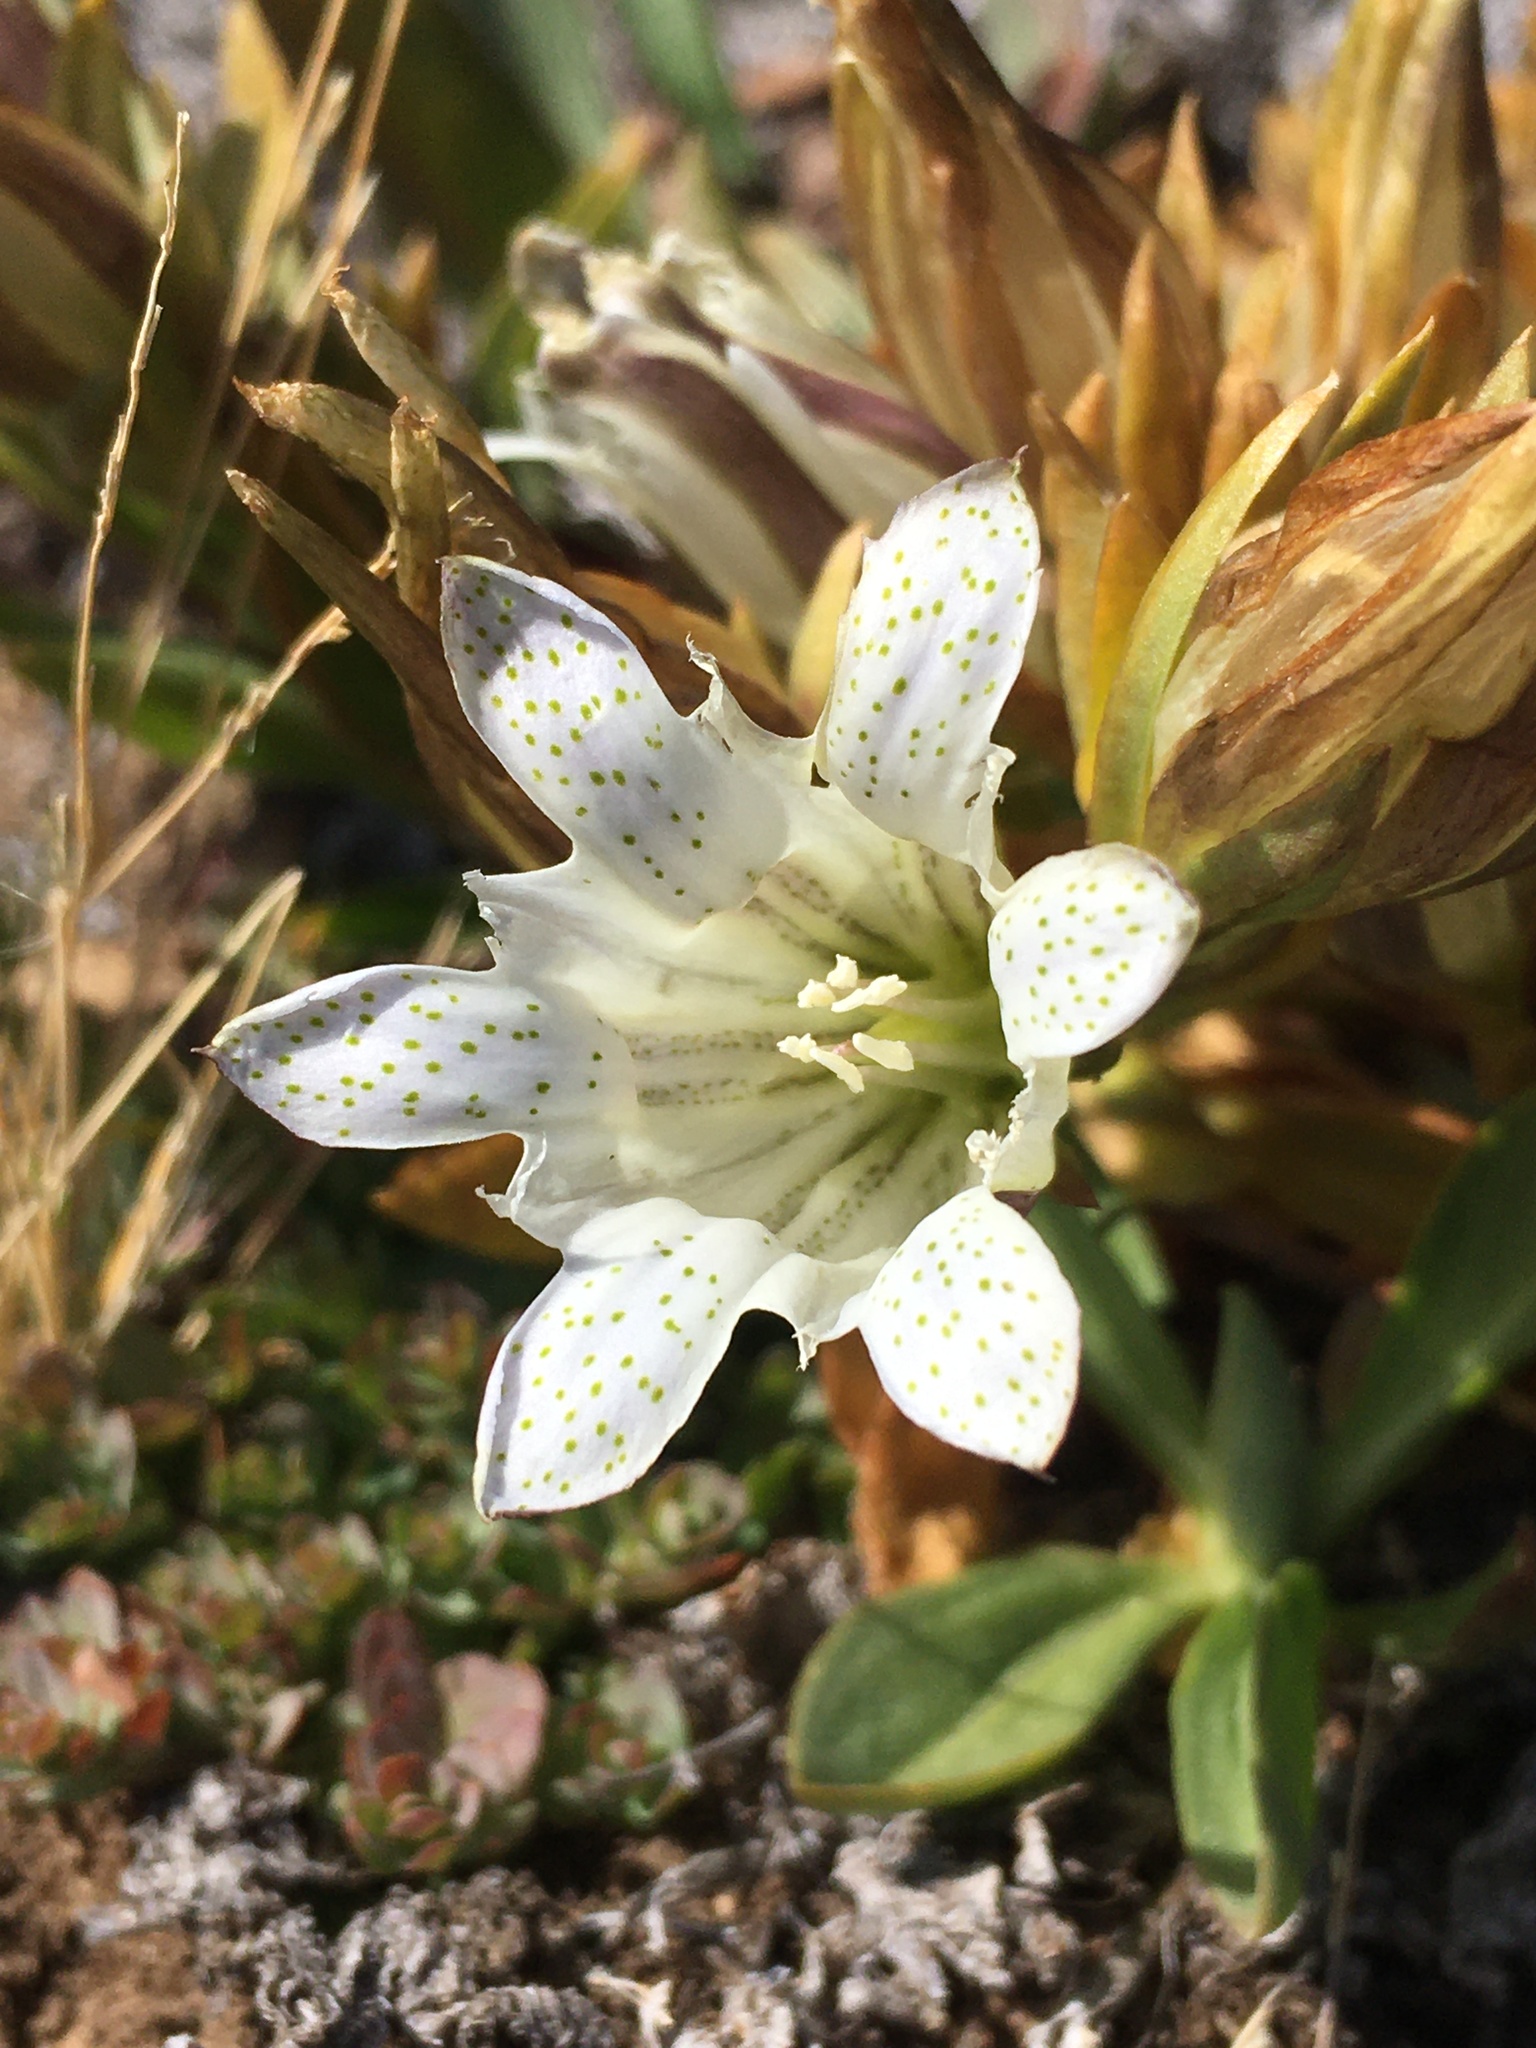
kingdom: Plantae
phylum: Tracheophyta
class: Magnoliopsida
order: Gentianales
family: Gentianaceae
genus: Gentiana
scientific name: Gentiana newberryi
